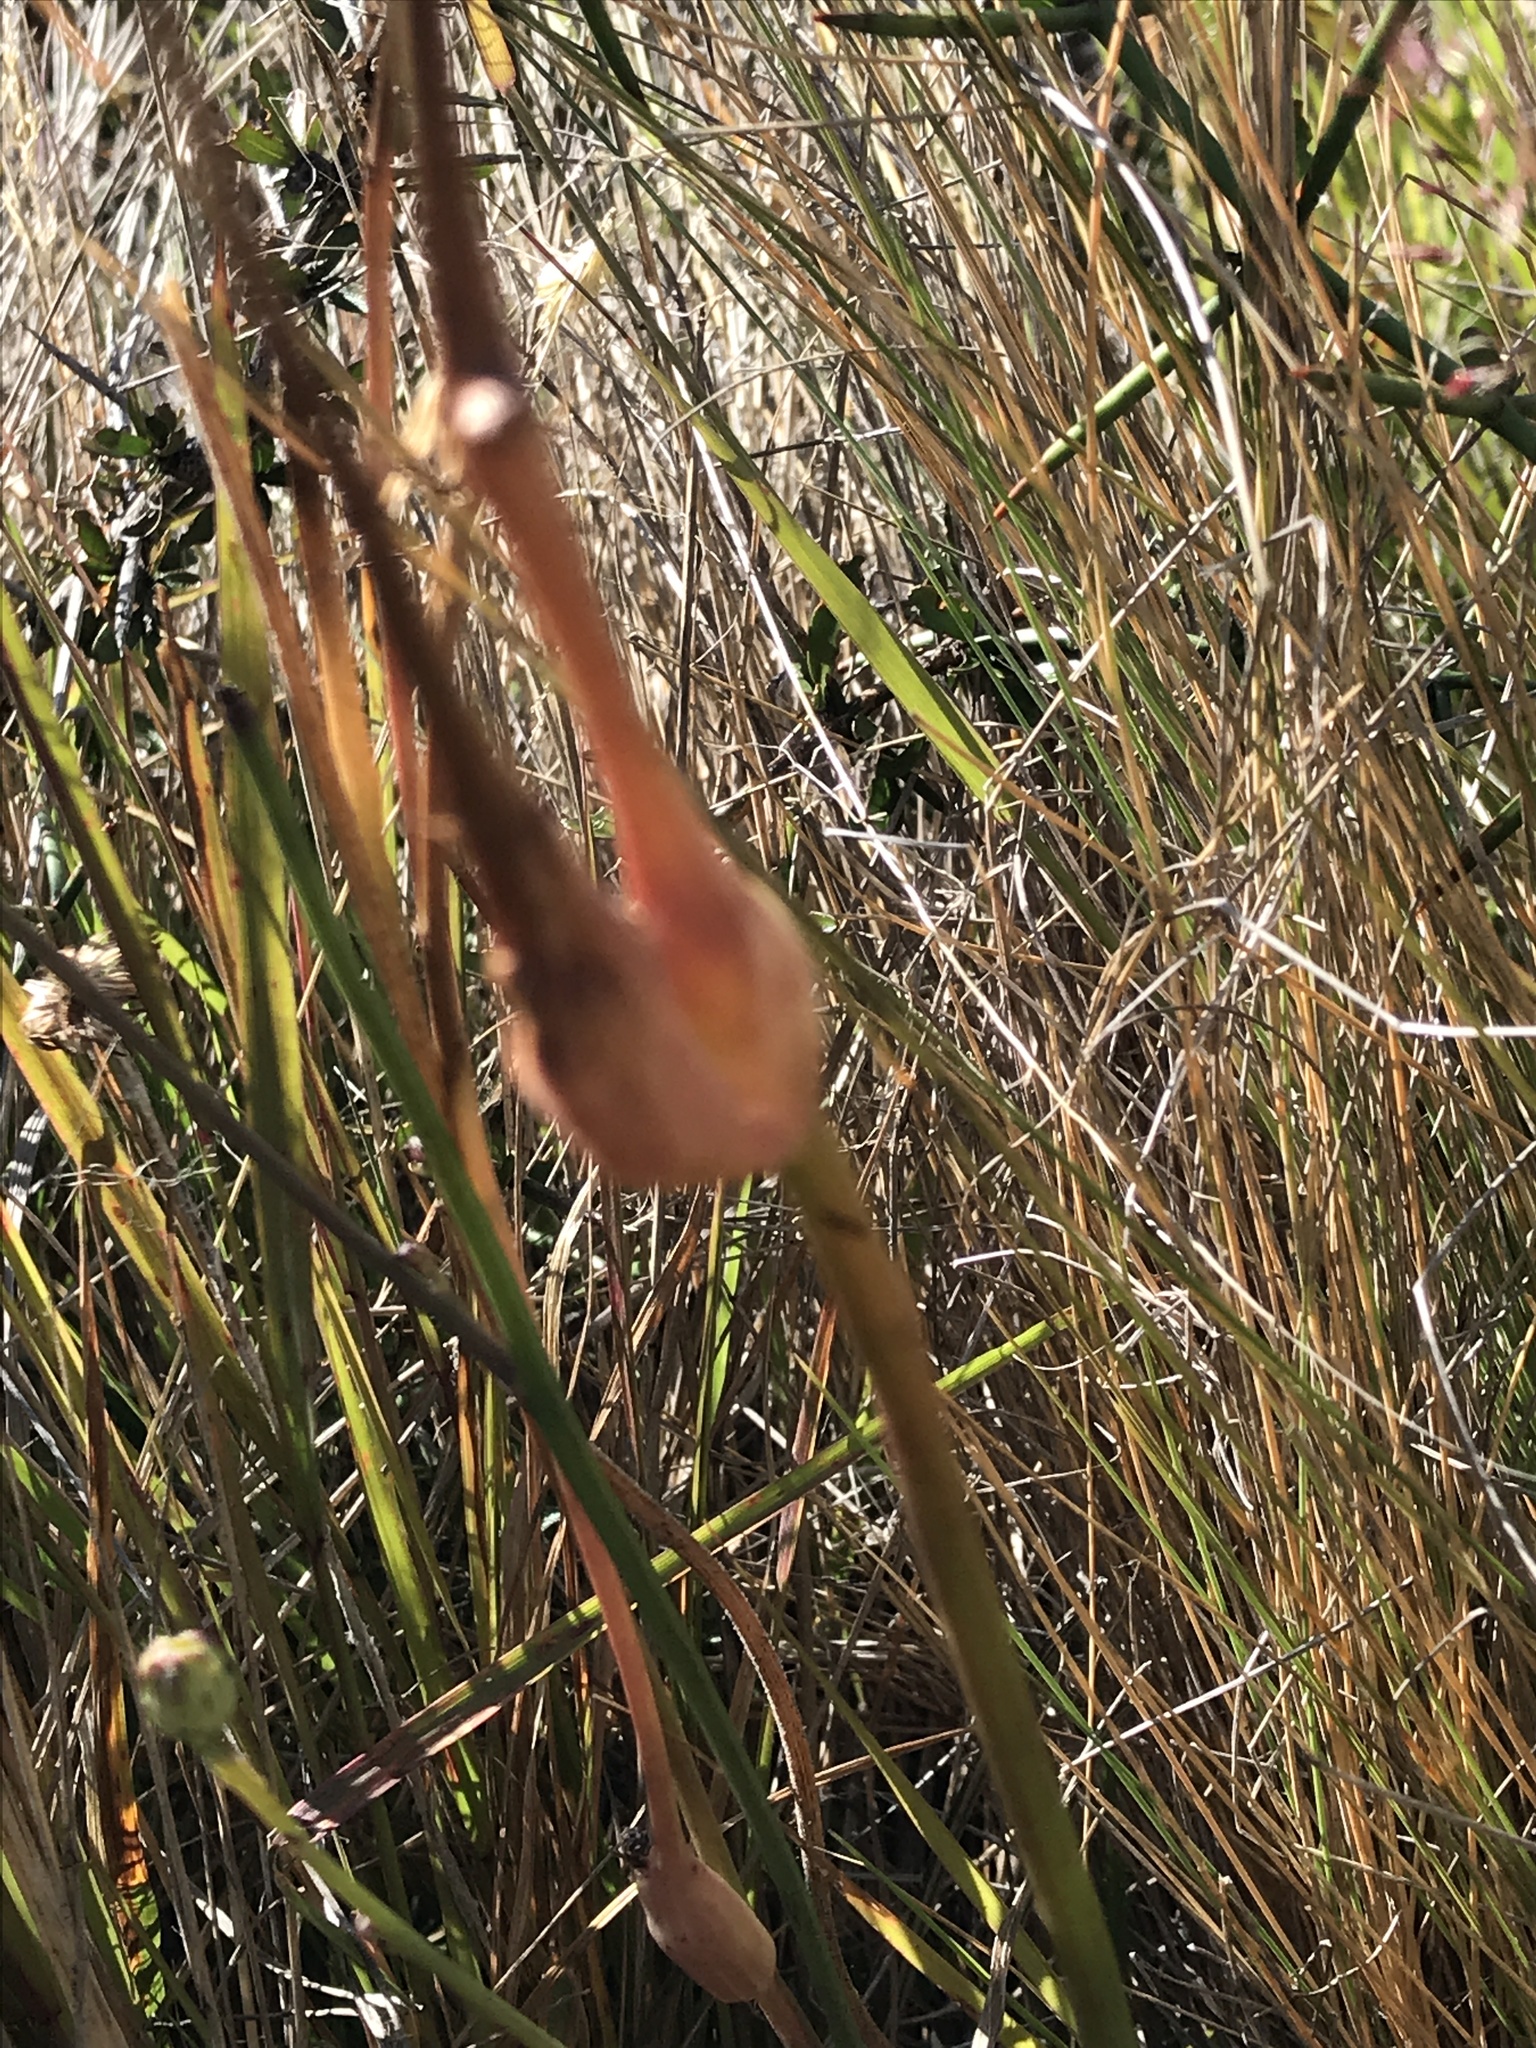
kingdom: Plantae
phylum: Tracheophyta
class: Magnoliopsida
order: Asterales
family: Asteraceae
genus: Hypochaeris
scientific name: Hypochaeris radicata
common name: Flatweed
